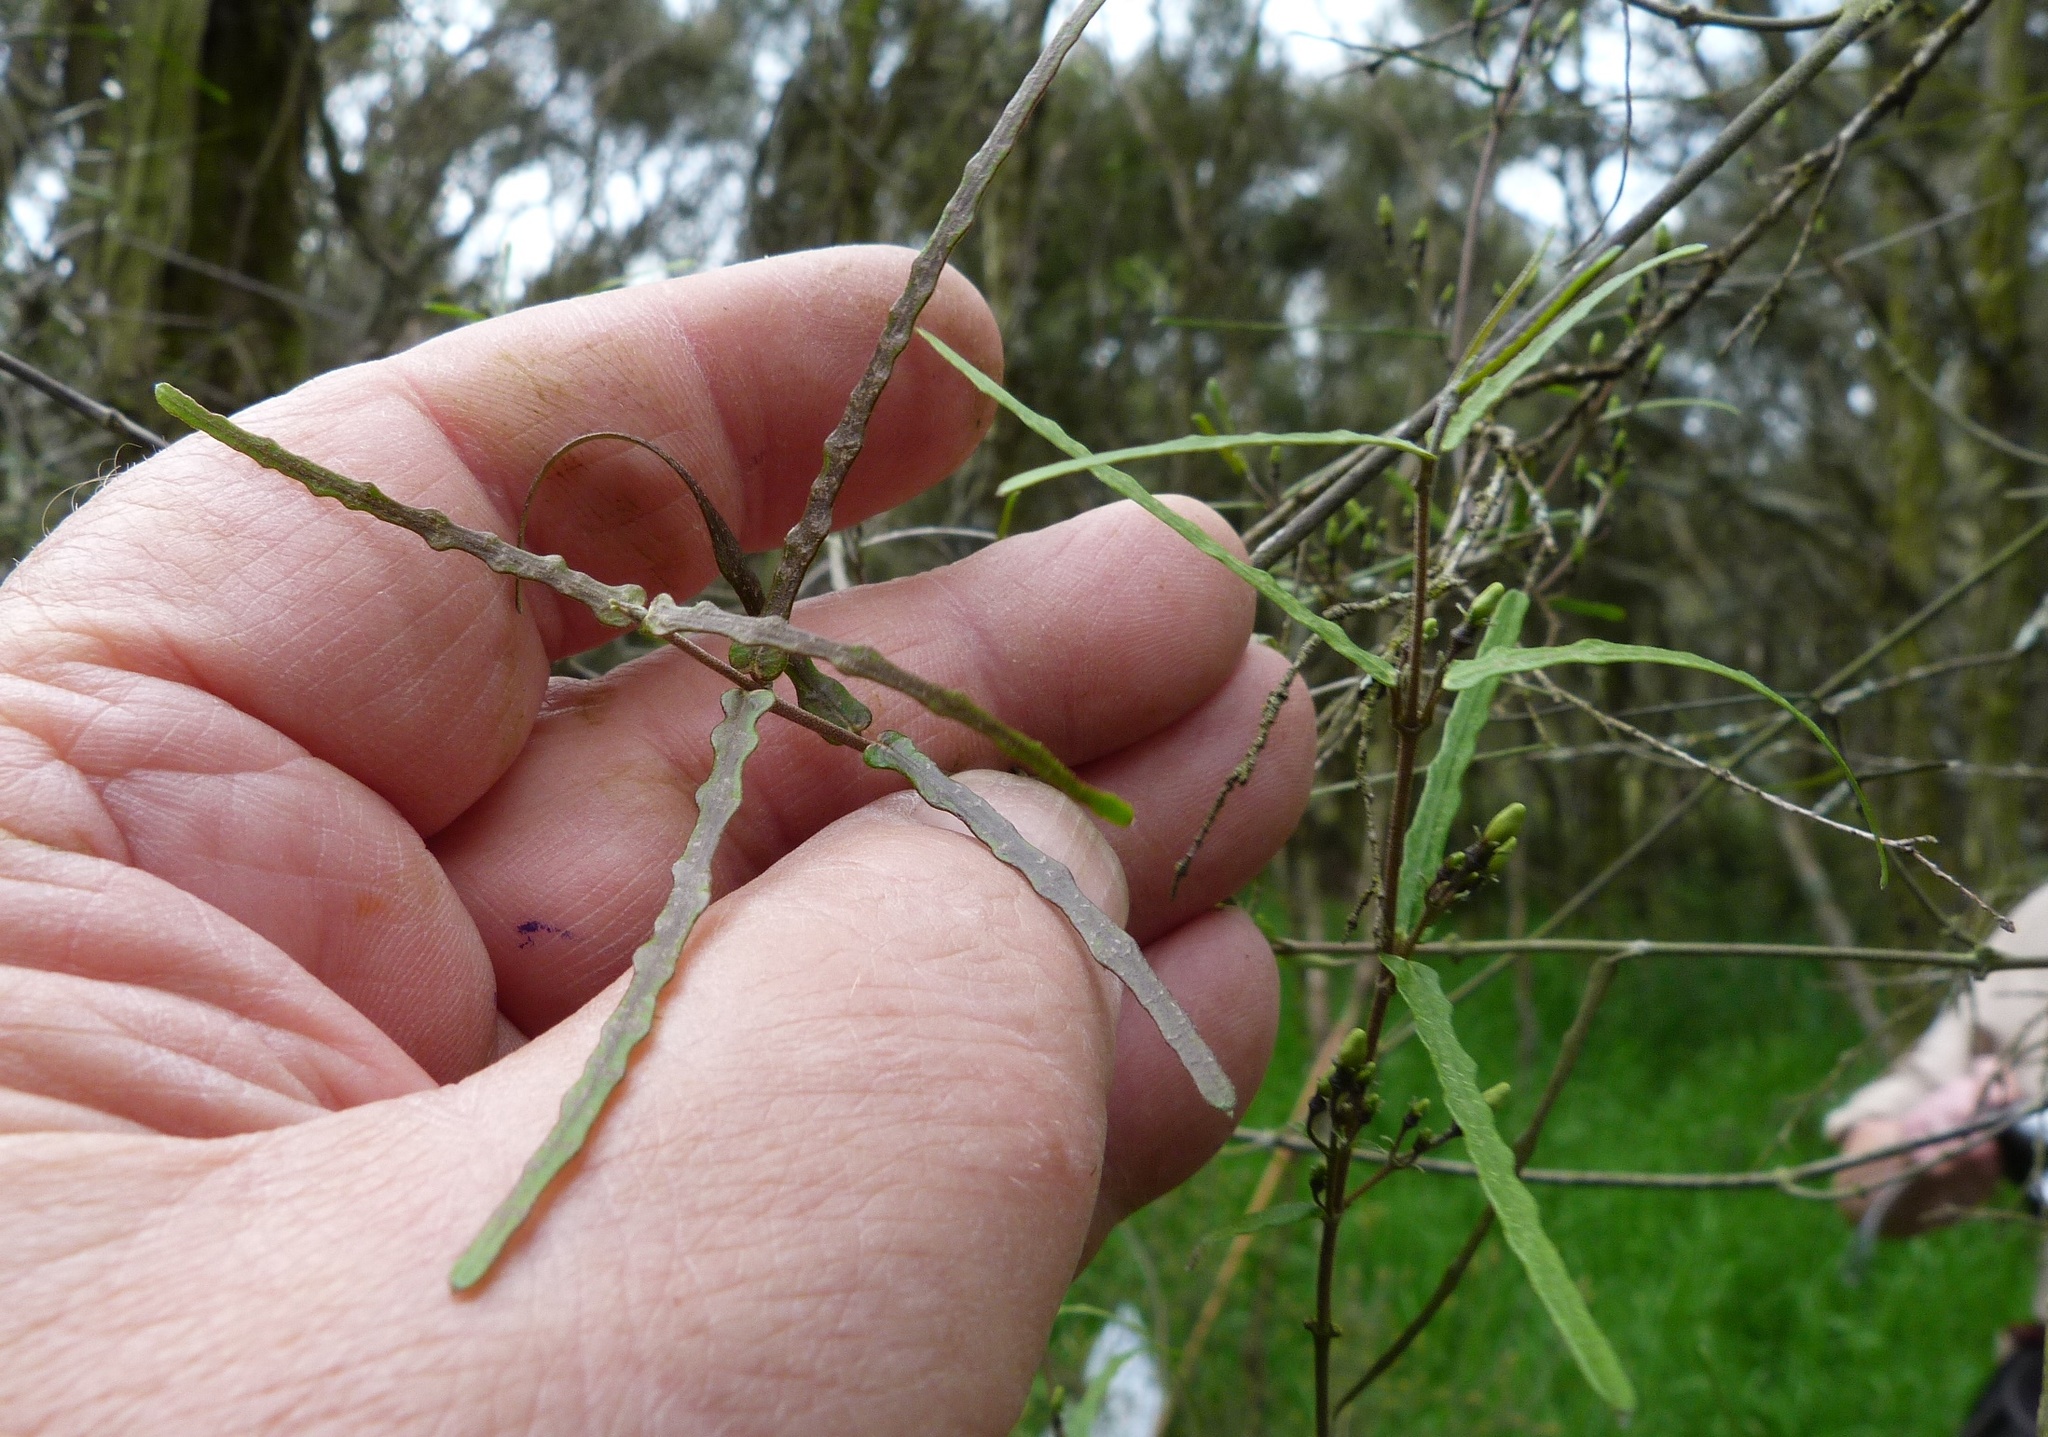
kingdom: Plantae
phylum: Tracheophyta
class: Magnoliopsida
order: Gentianales
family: Apocynaceae
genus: Parsonsia
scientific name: Parsonsia capsularis
